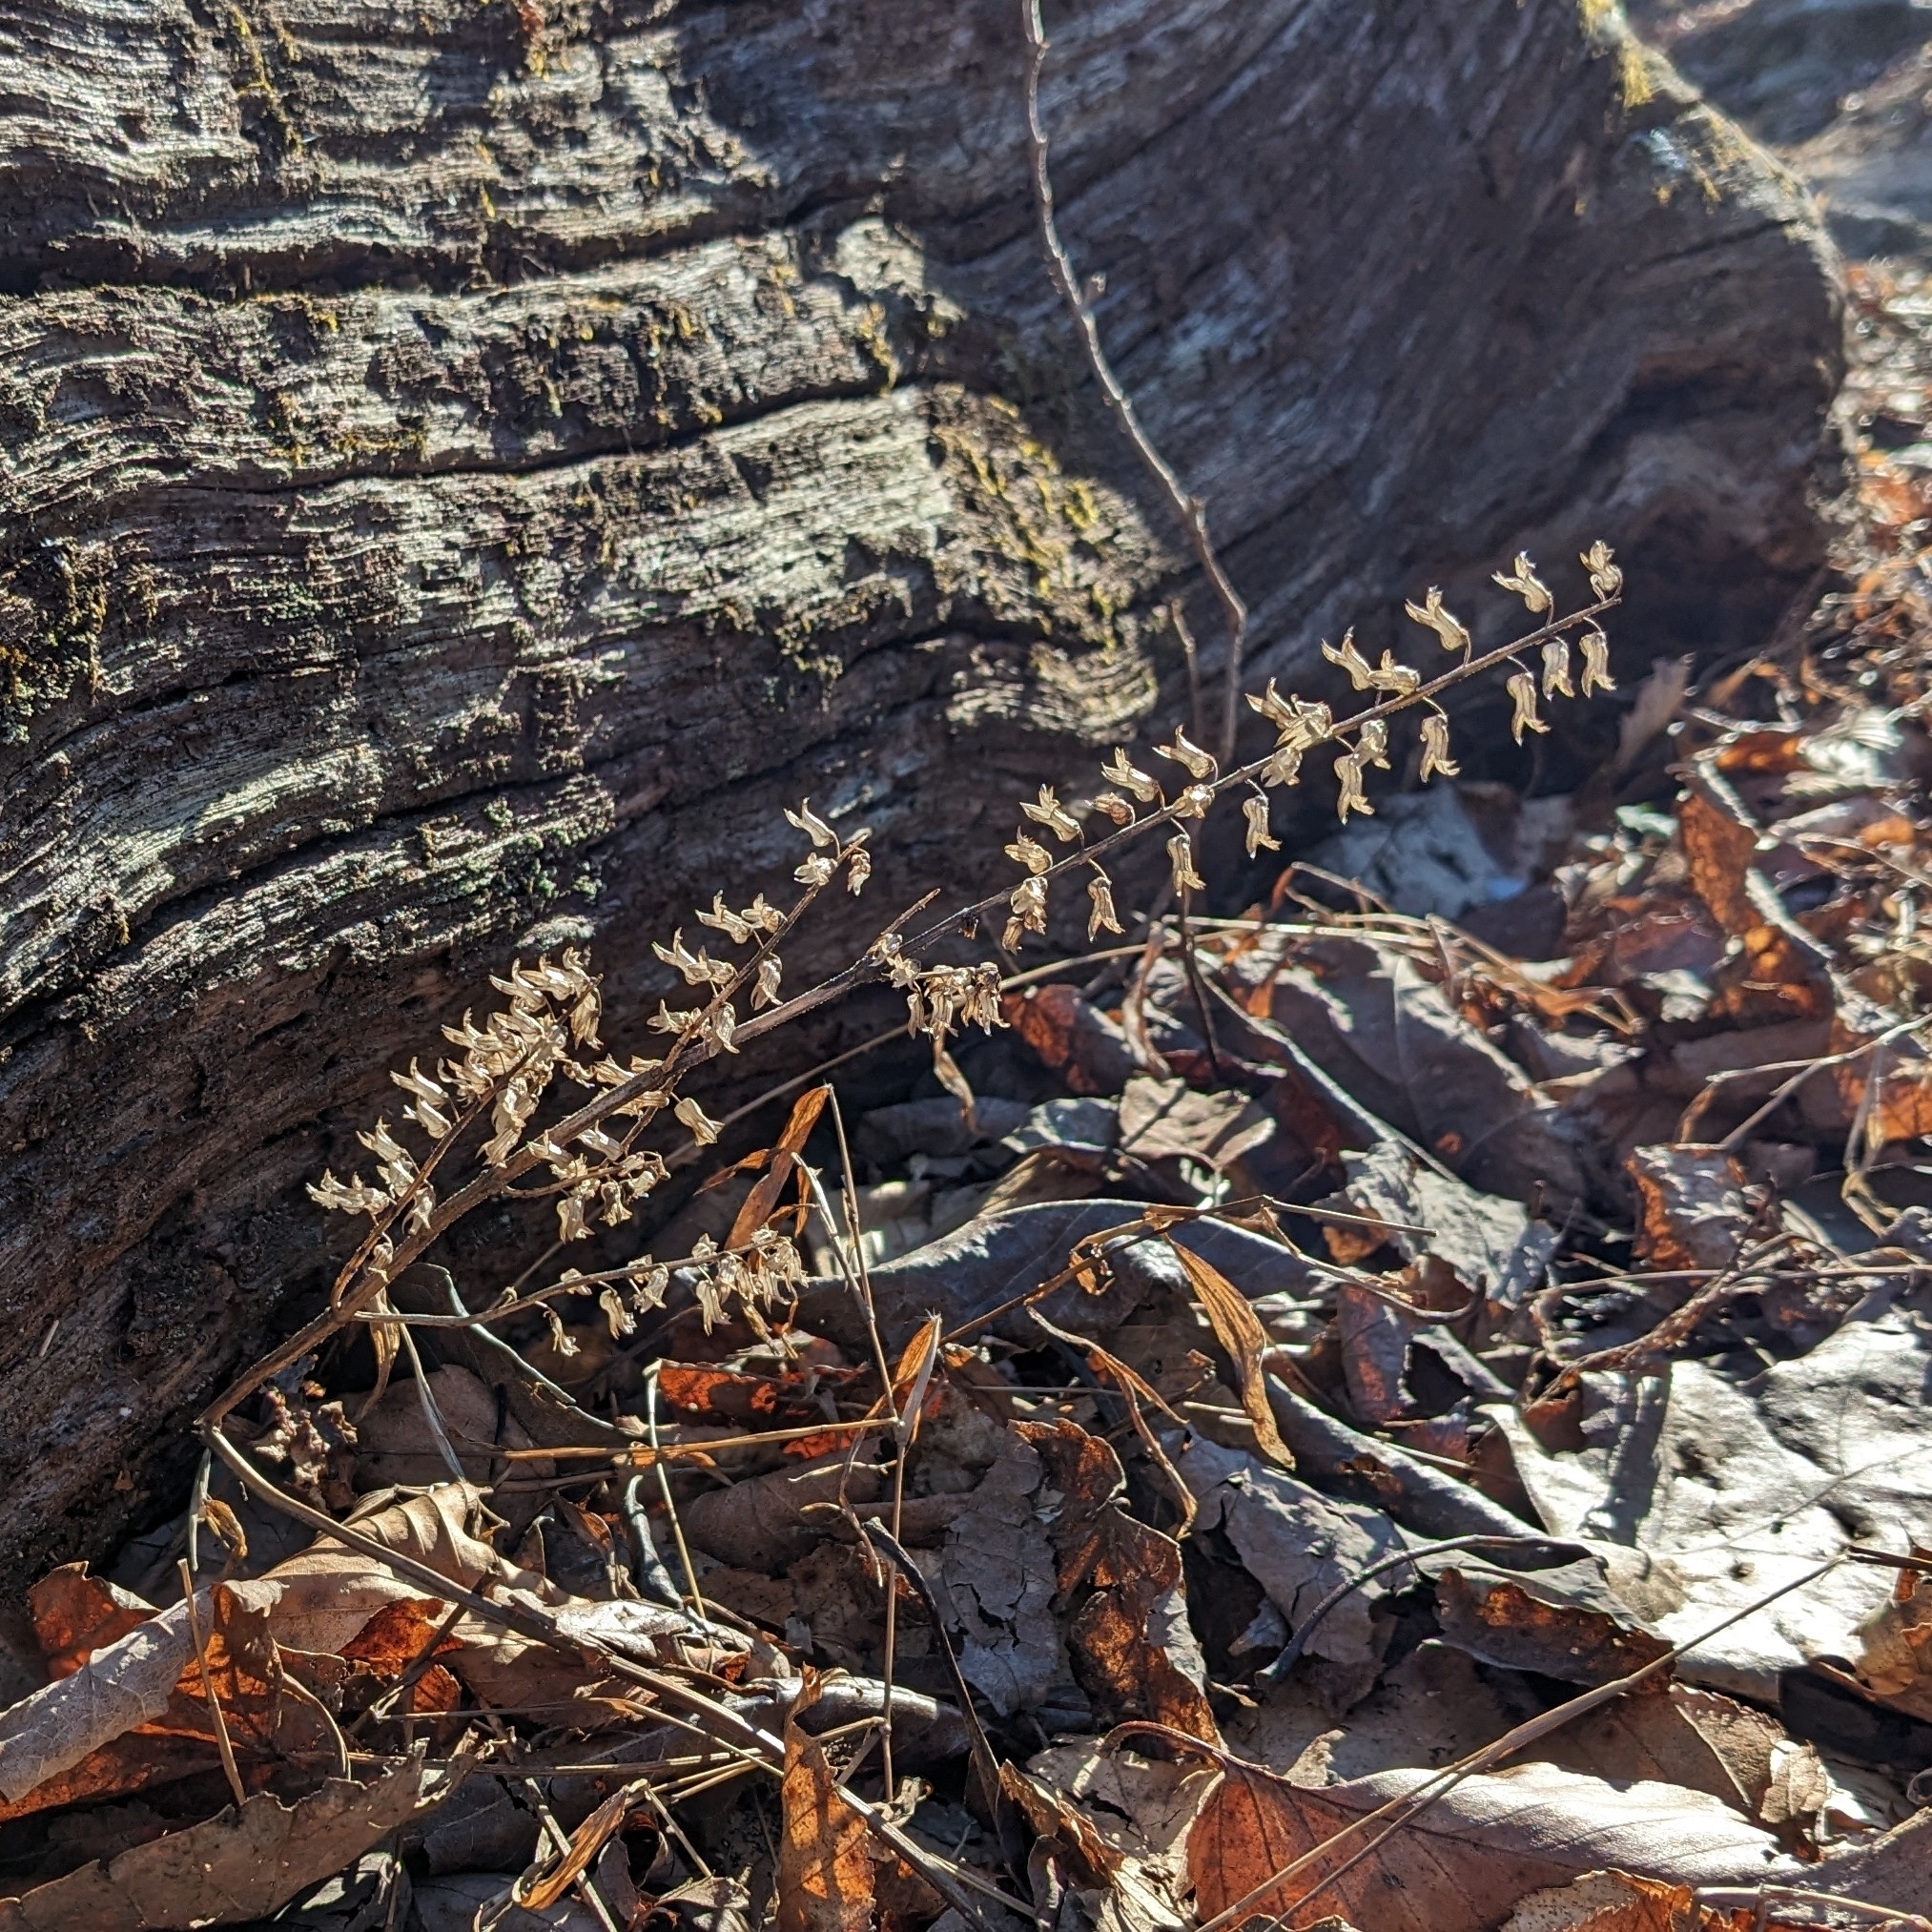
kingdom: Plantae
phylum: Tracheophyta
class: Magnoliopsida
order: Lamiales
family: Lamiaceae
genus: Perilla
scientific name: Perilla frutescens
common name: Perilla
